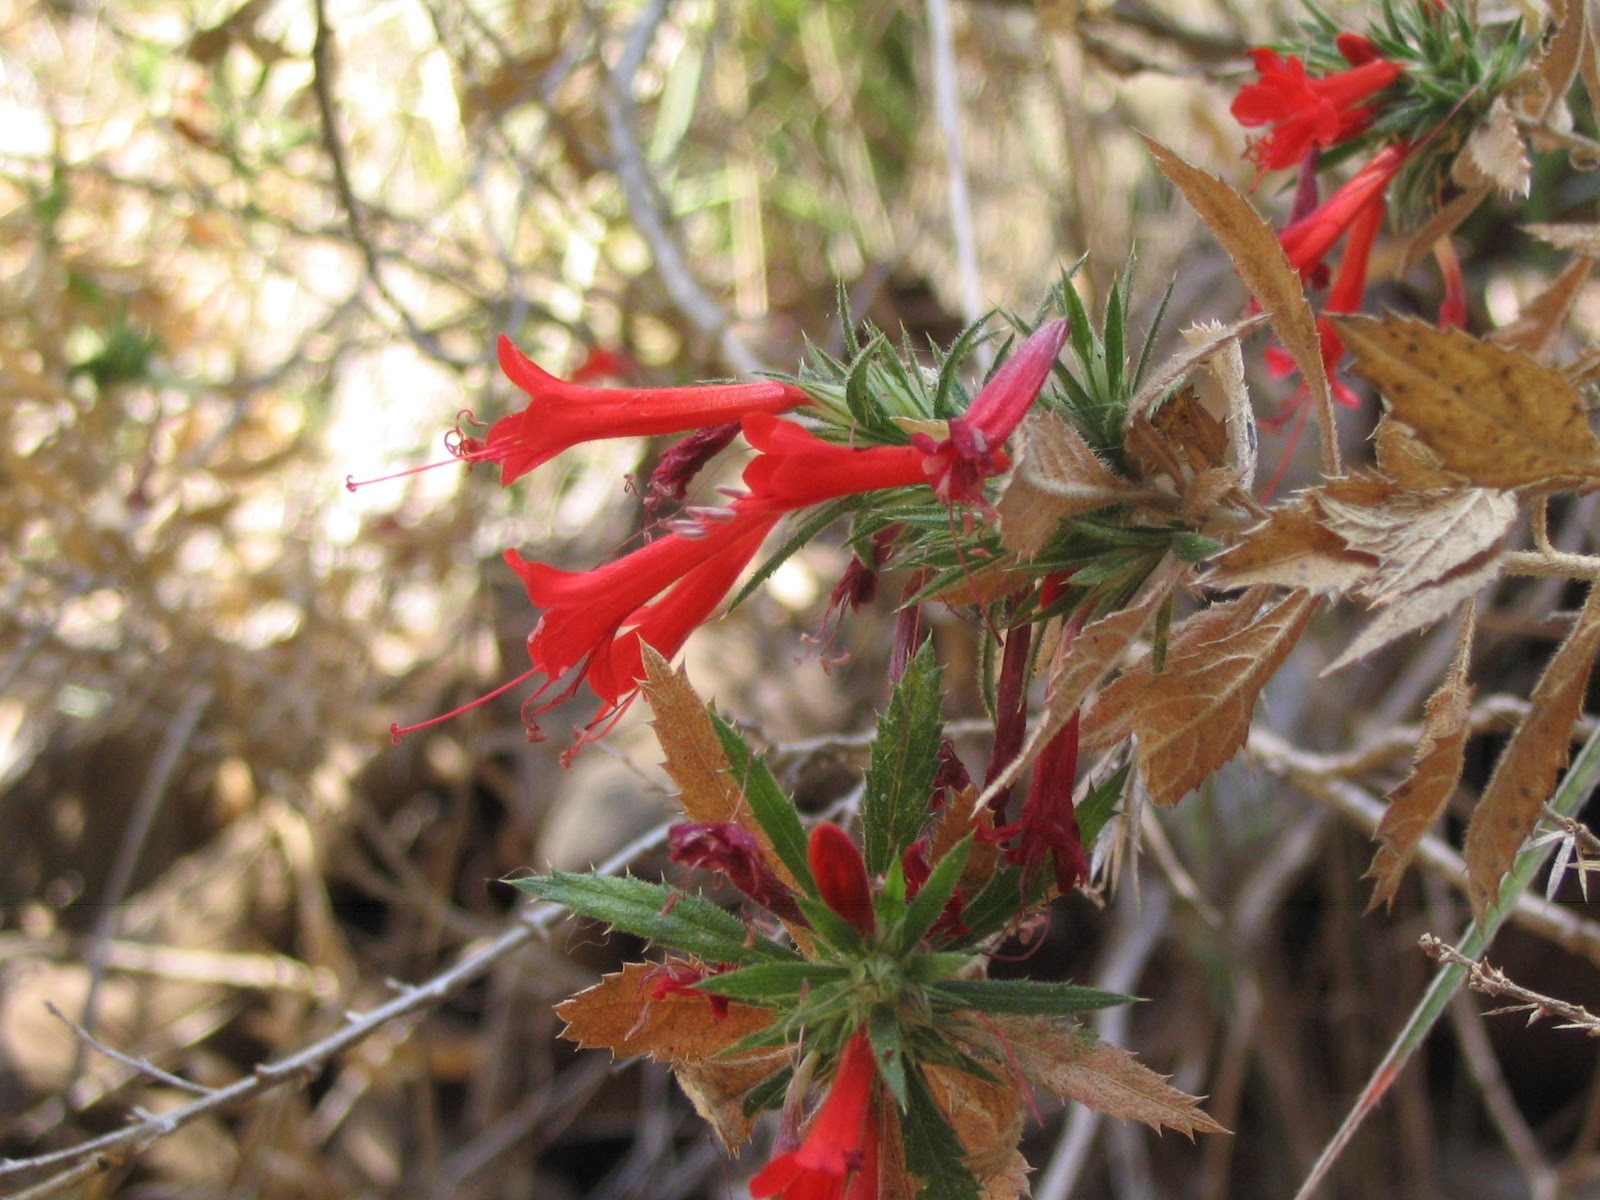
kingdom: Plantae
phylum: Tracheophyta
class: Magnoliopsida
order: Ericales
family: Polemoniaceae
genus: Loeselia
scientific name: Loeselia mexicana
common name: Mexican false calico
